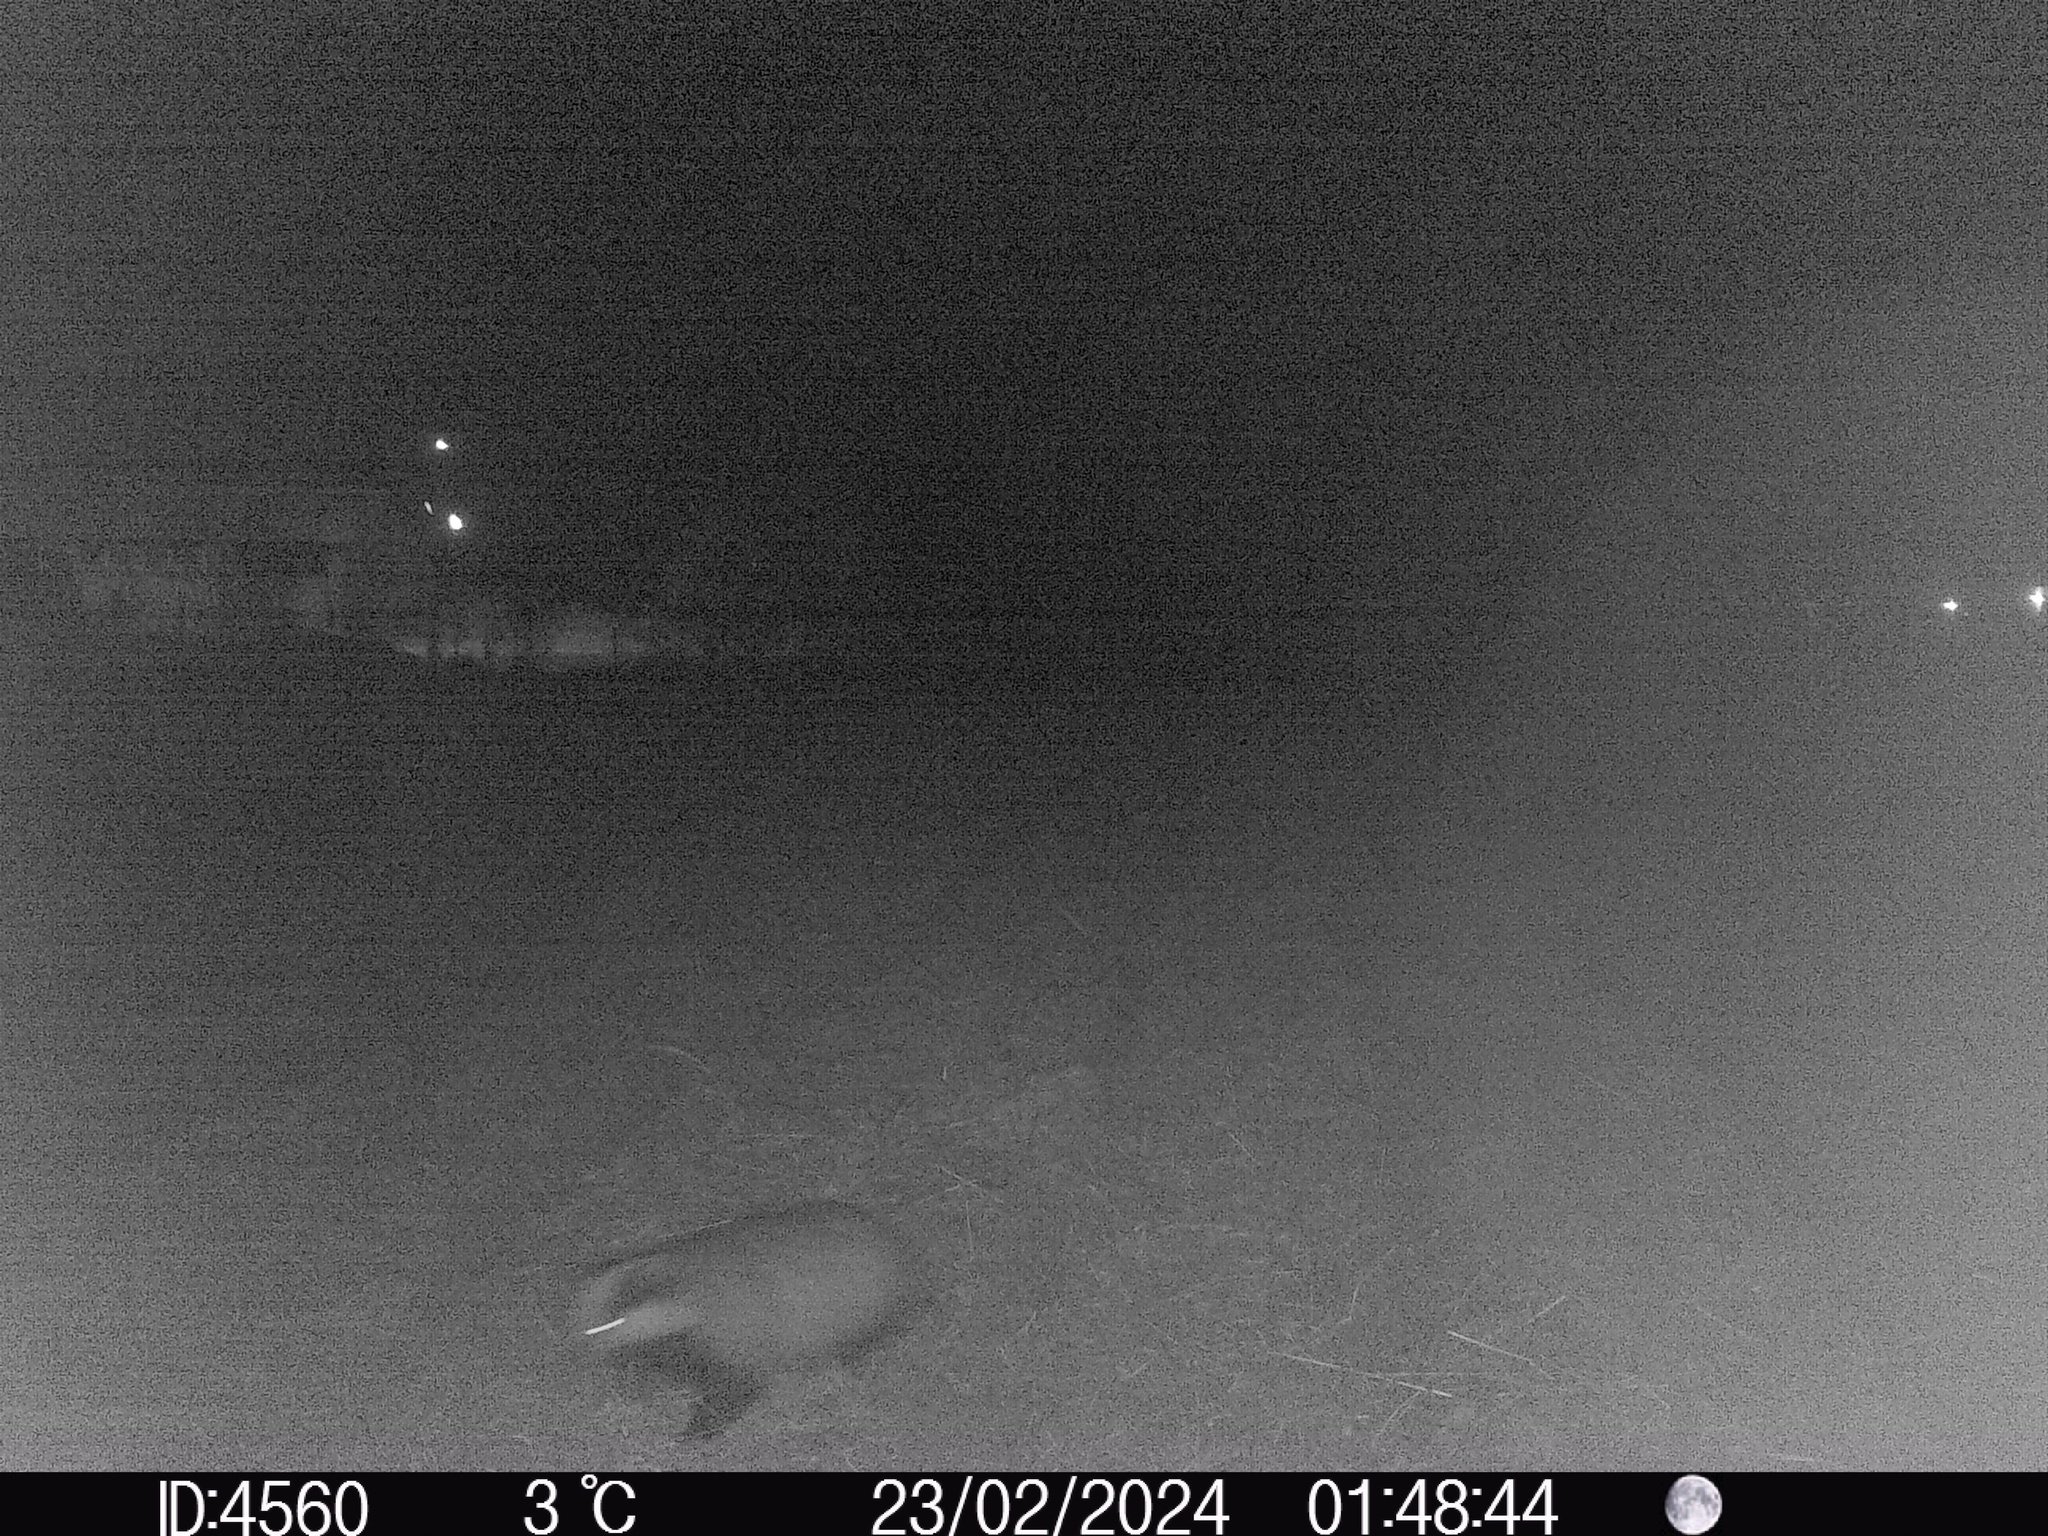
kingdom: Animalia
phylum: Chordata
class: Mammalia
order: Carnivora
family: Mustelidae
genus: Meles
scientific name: Meles meles
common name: Eurasian badger
